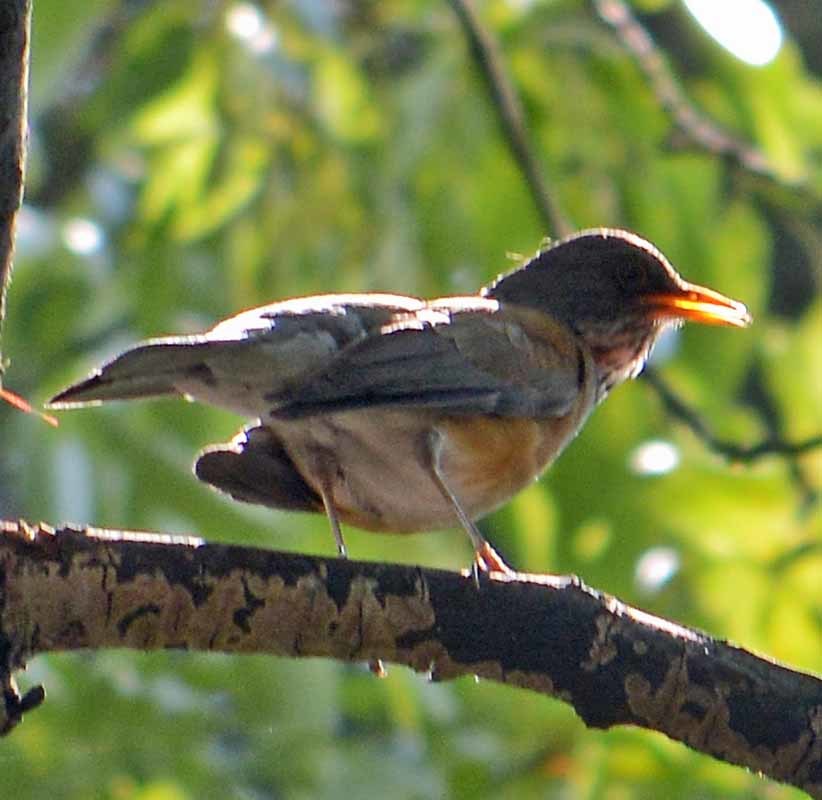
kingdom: Animalia
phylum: Chordata
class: Aves
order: Passeriformes
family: Turdidae
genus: Turdus
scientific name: Turdus rufopalliatus
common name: Rufous-backed robin
